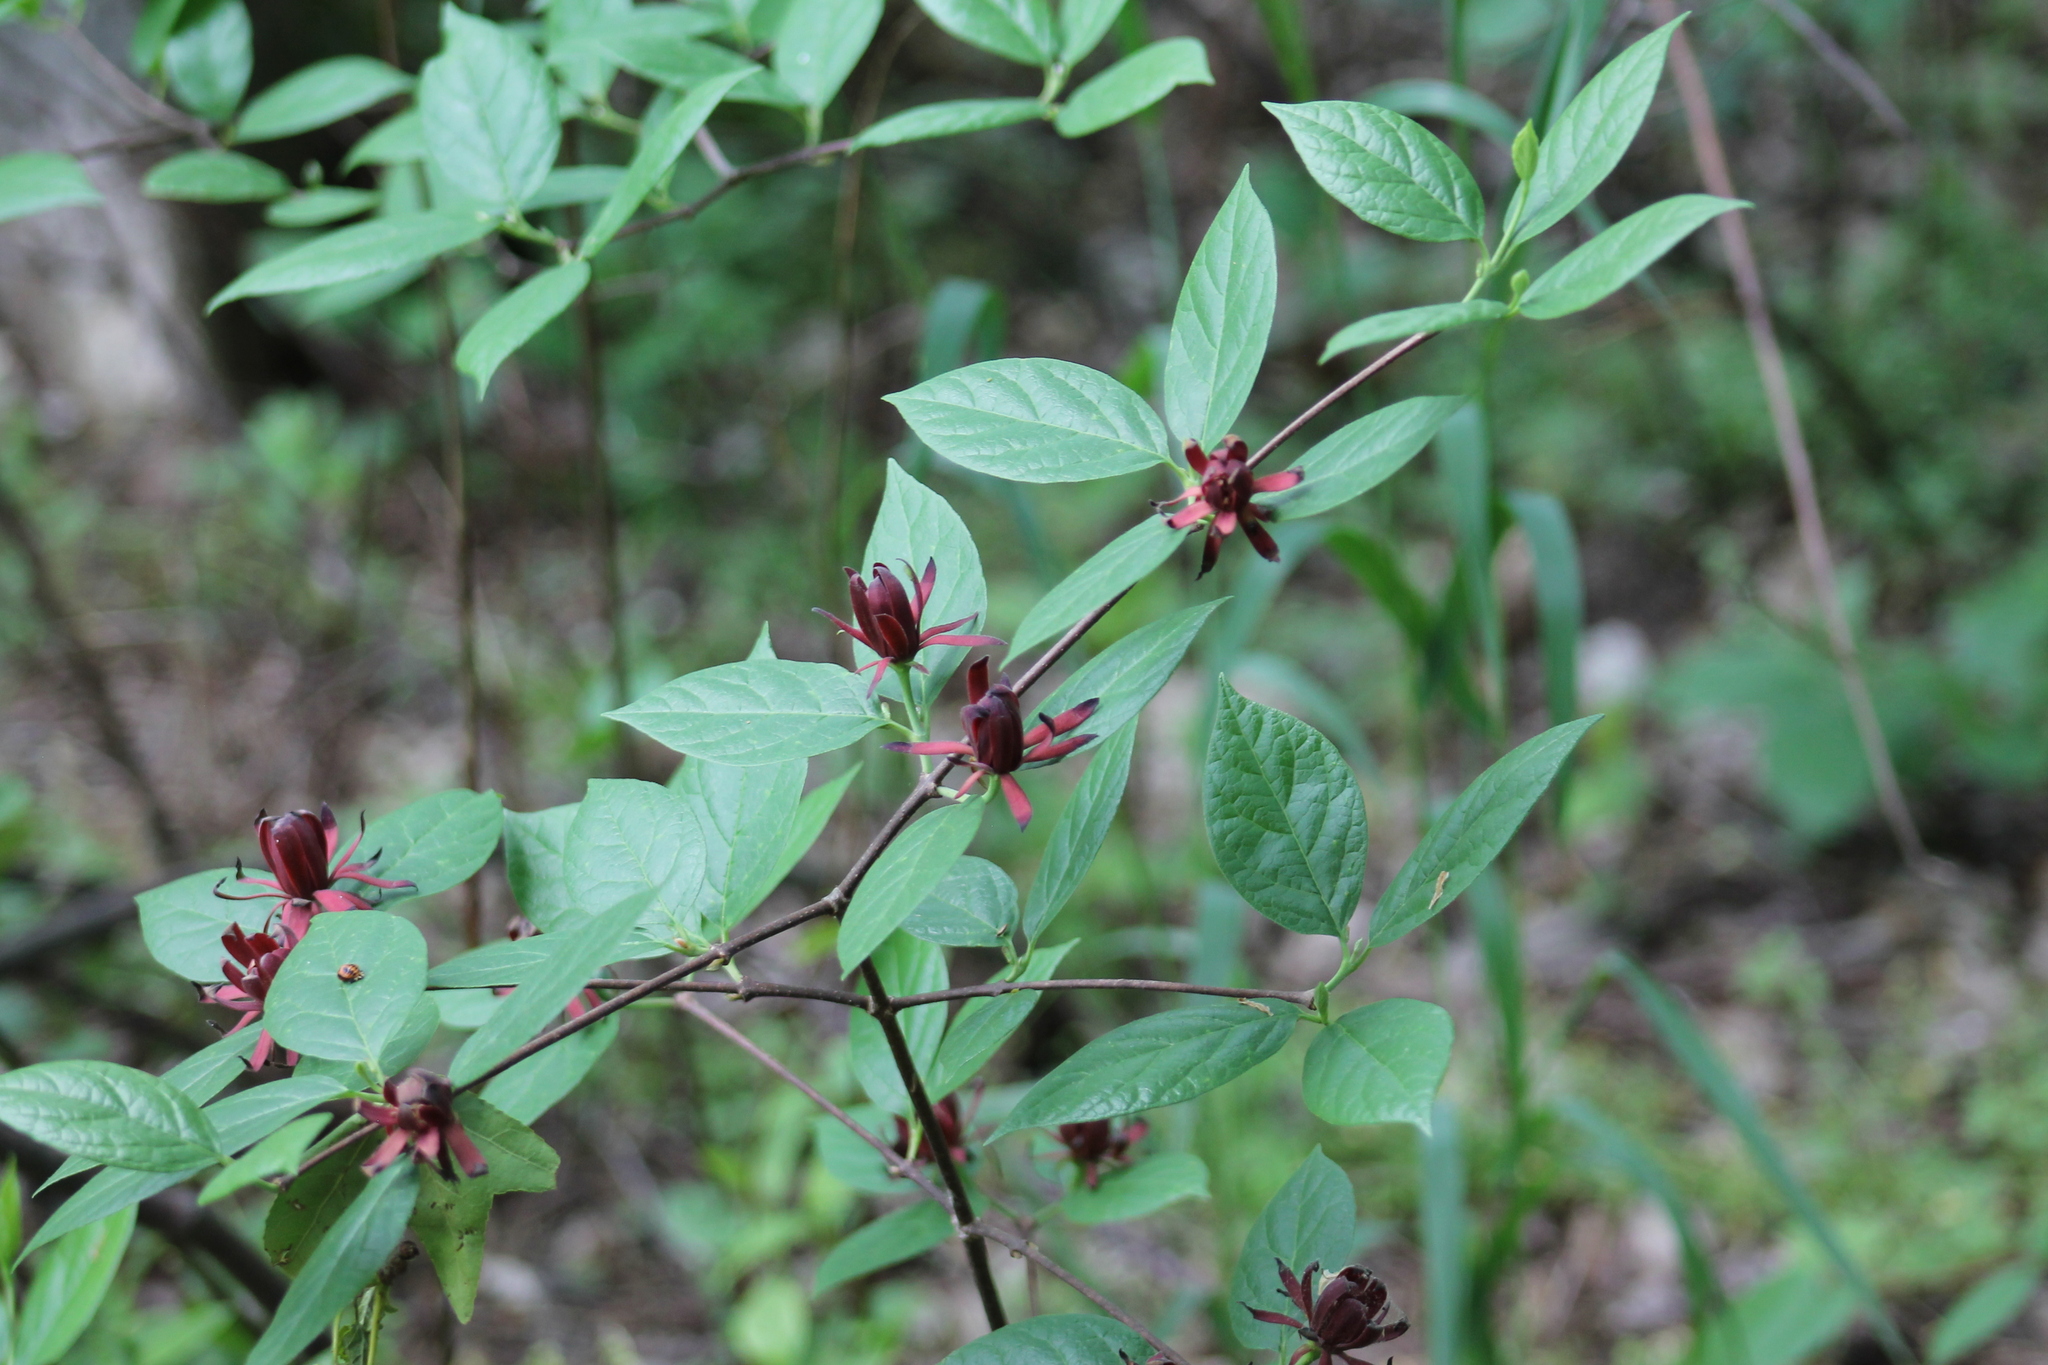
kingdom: Plantae
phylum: Tracheophyta
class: Magnoliopsida
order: Laurales
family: Calycanthaceae
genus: Calycanthus
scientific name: Calycanthus floridus
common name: Carolina-allspice
